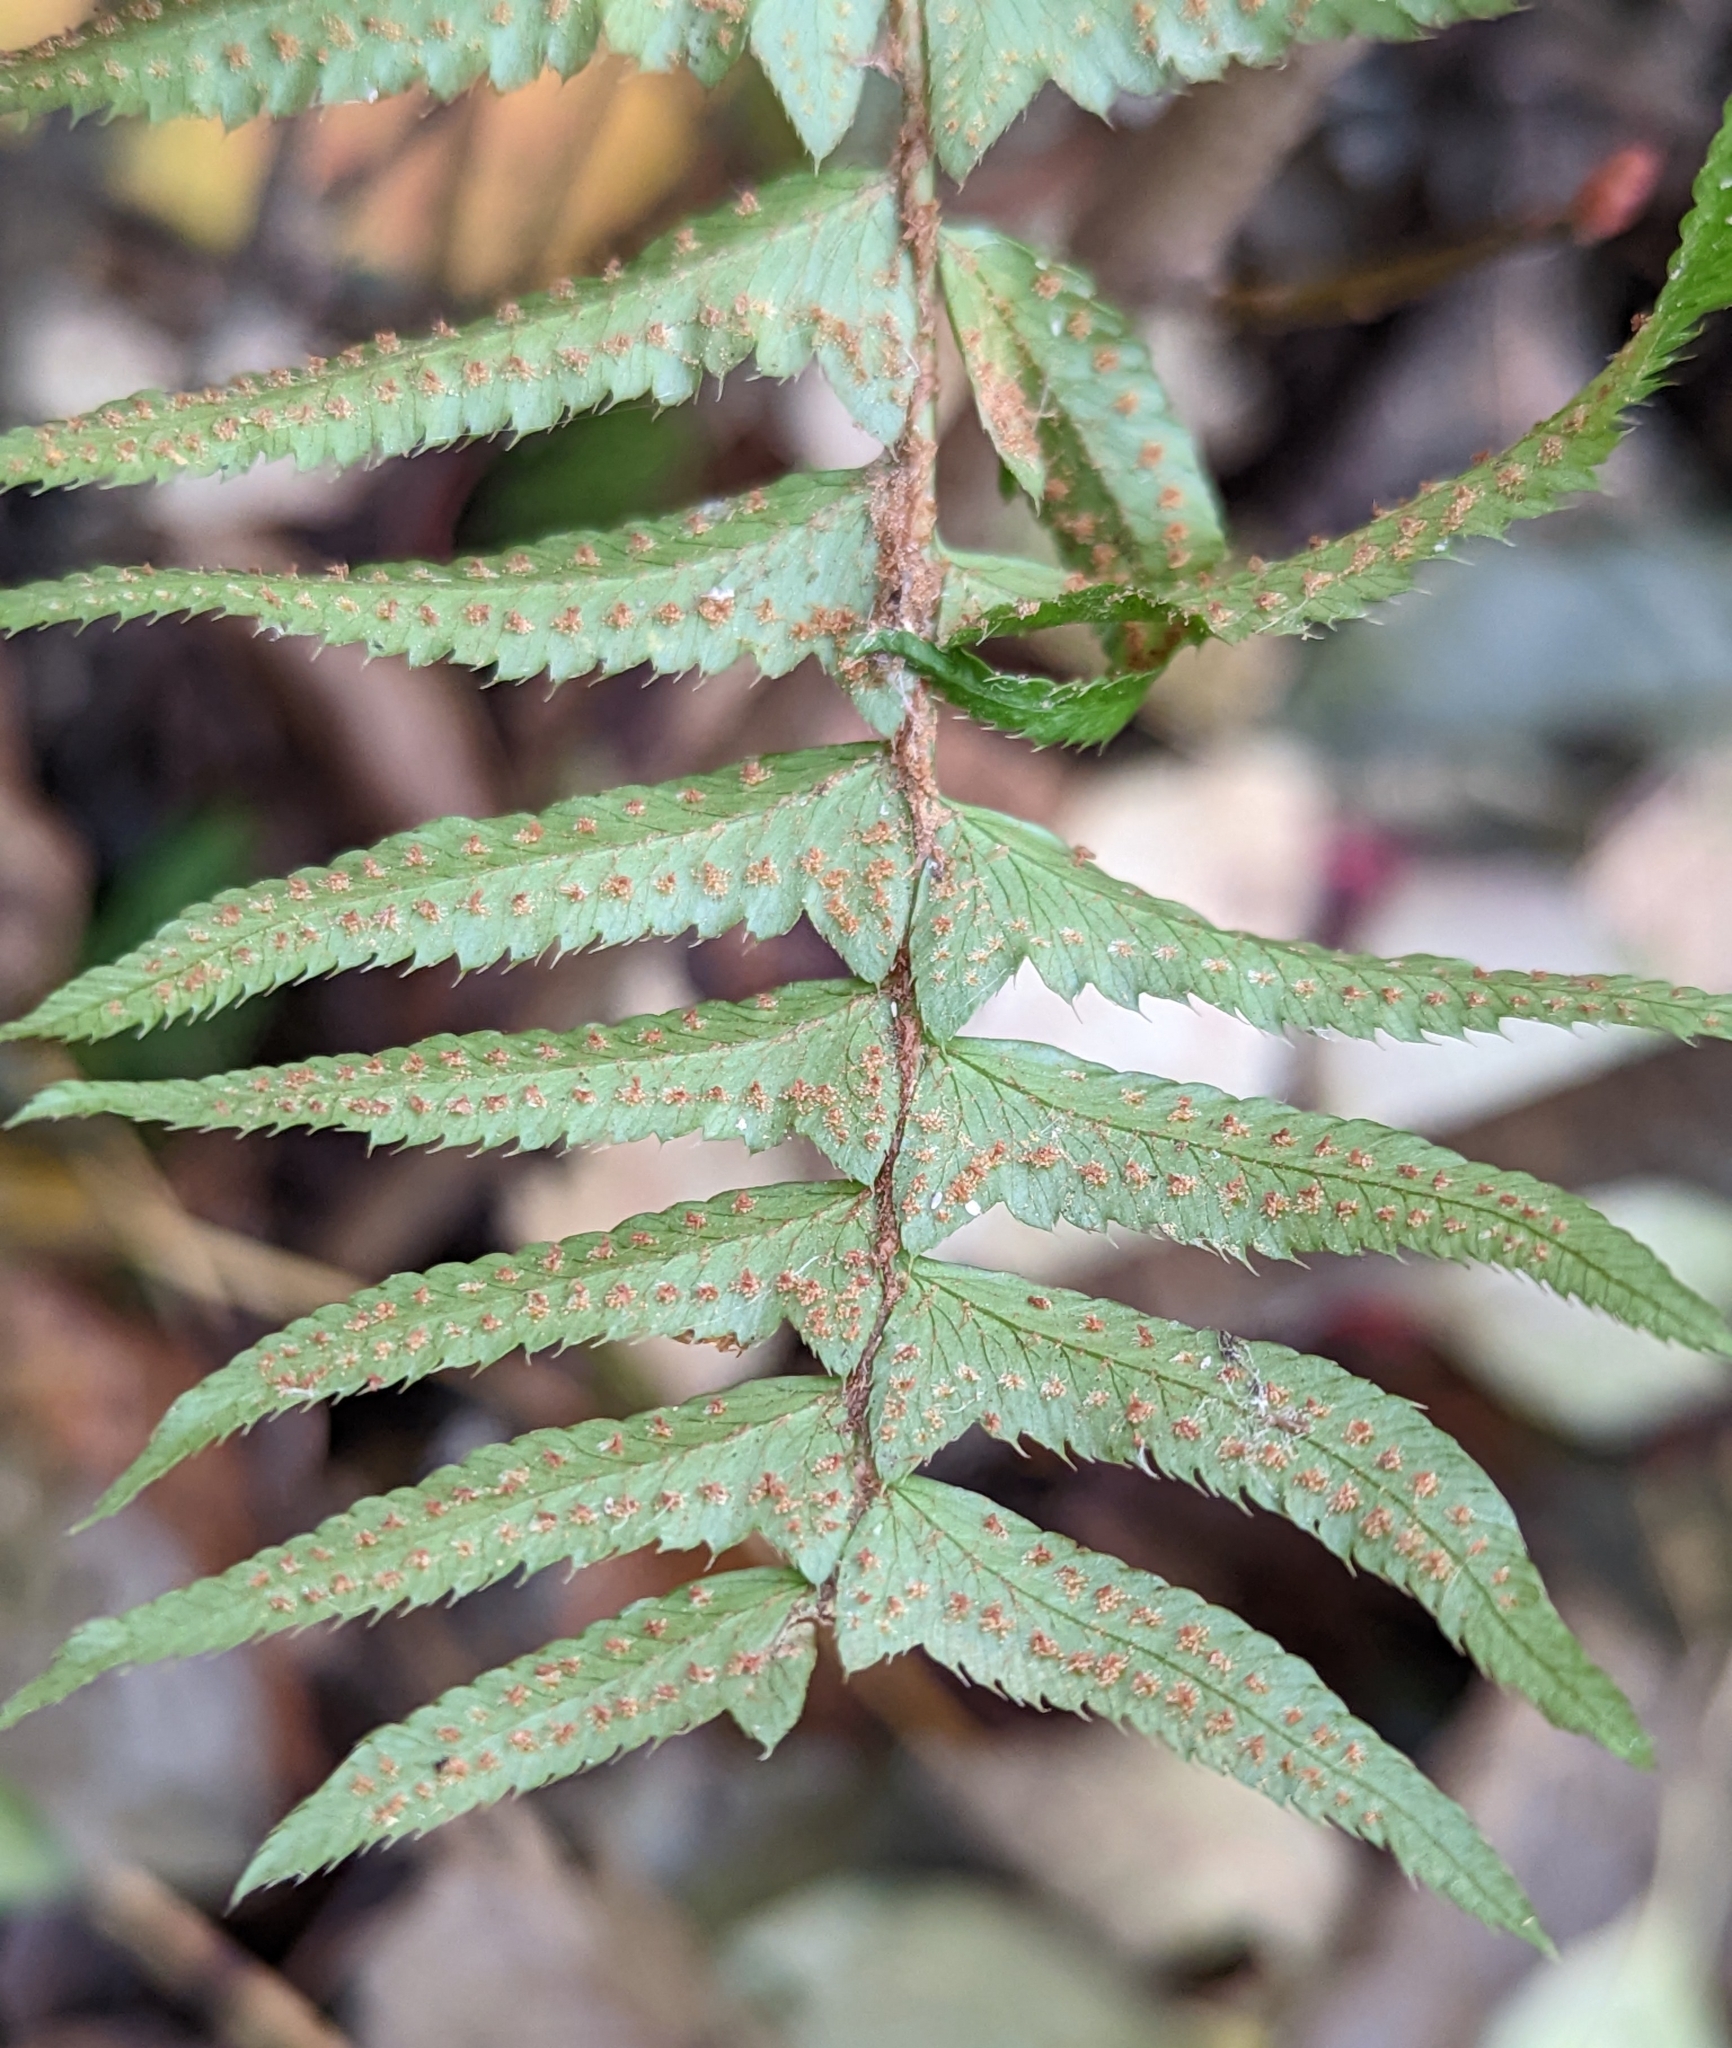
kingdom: Plantae
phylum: Tracheophyta
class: Polypodiopsida
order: Polypodiales
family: Dryopteridaceae
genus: Polystichum
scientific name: Polystichum munitum
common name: Western sword-fern
